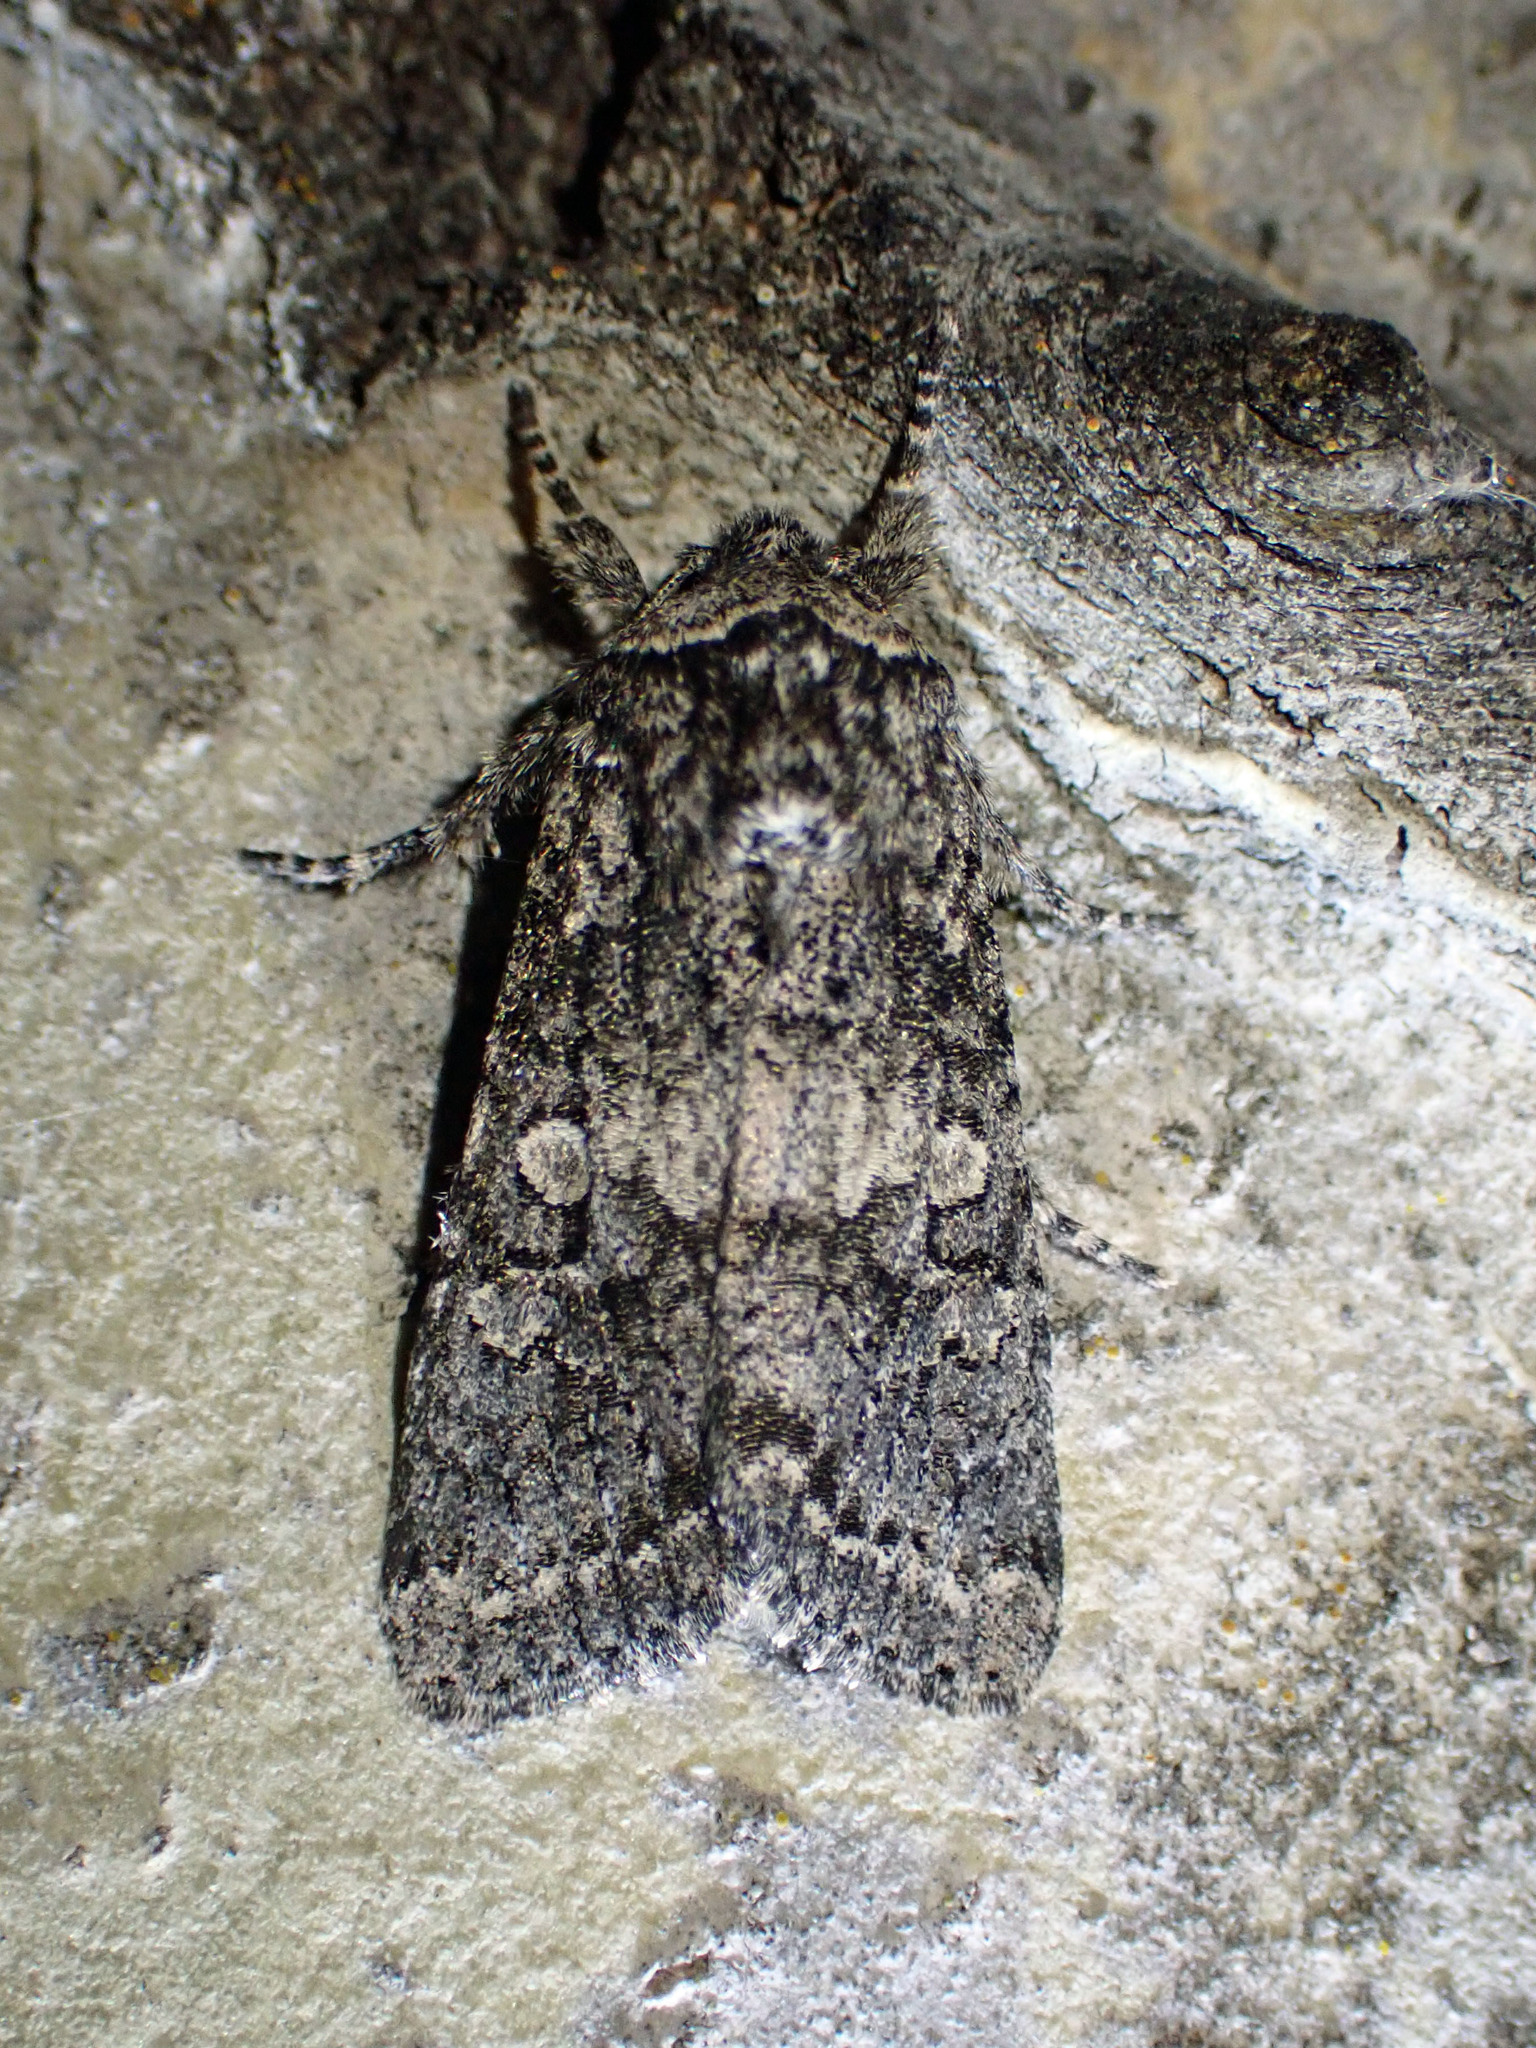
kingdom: Animalia
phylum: Arthropoda
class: Insecta
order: Lepidoptera
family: Noctuidae
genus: Egira
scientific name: Egira dolosa
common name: Lined black aspen cat.
